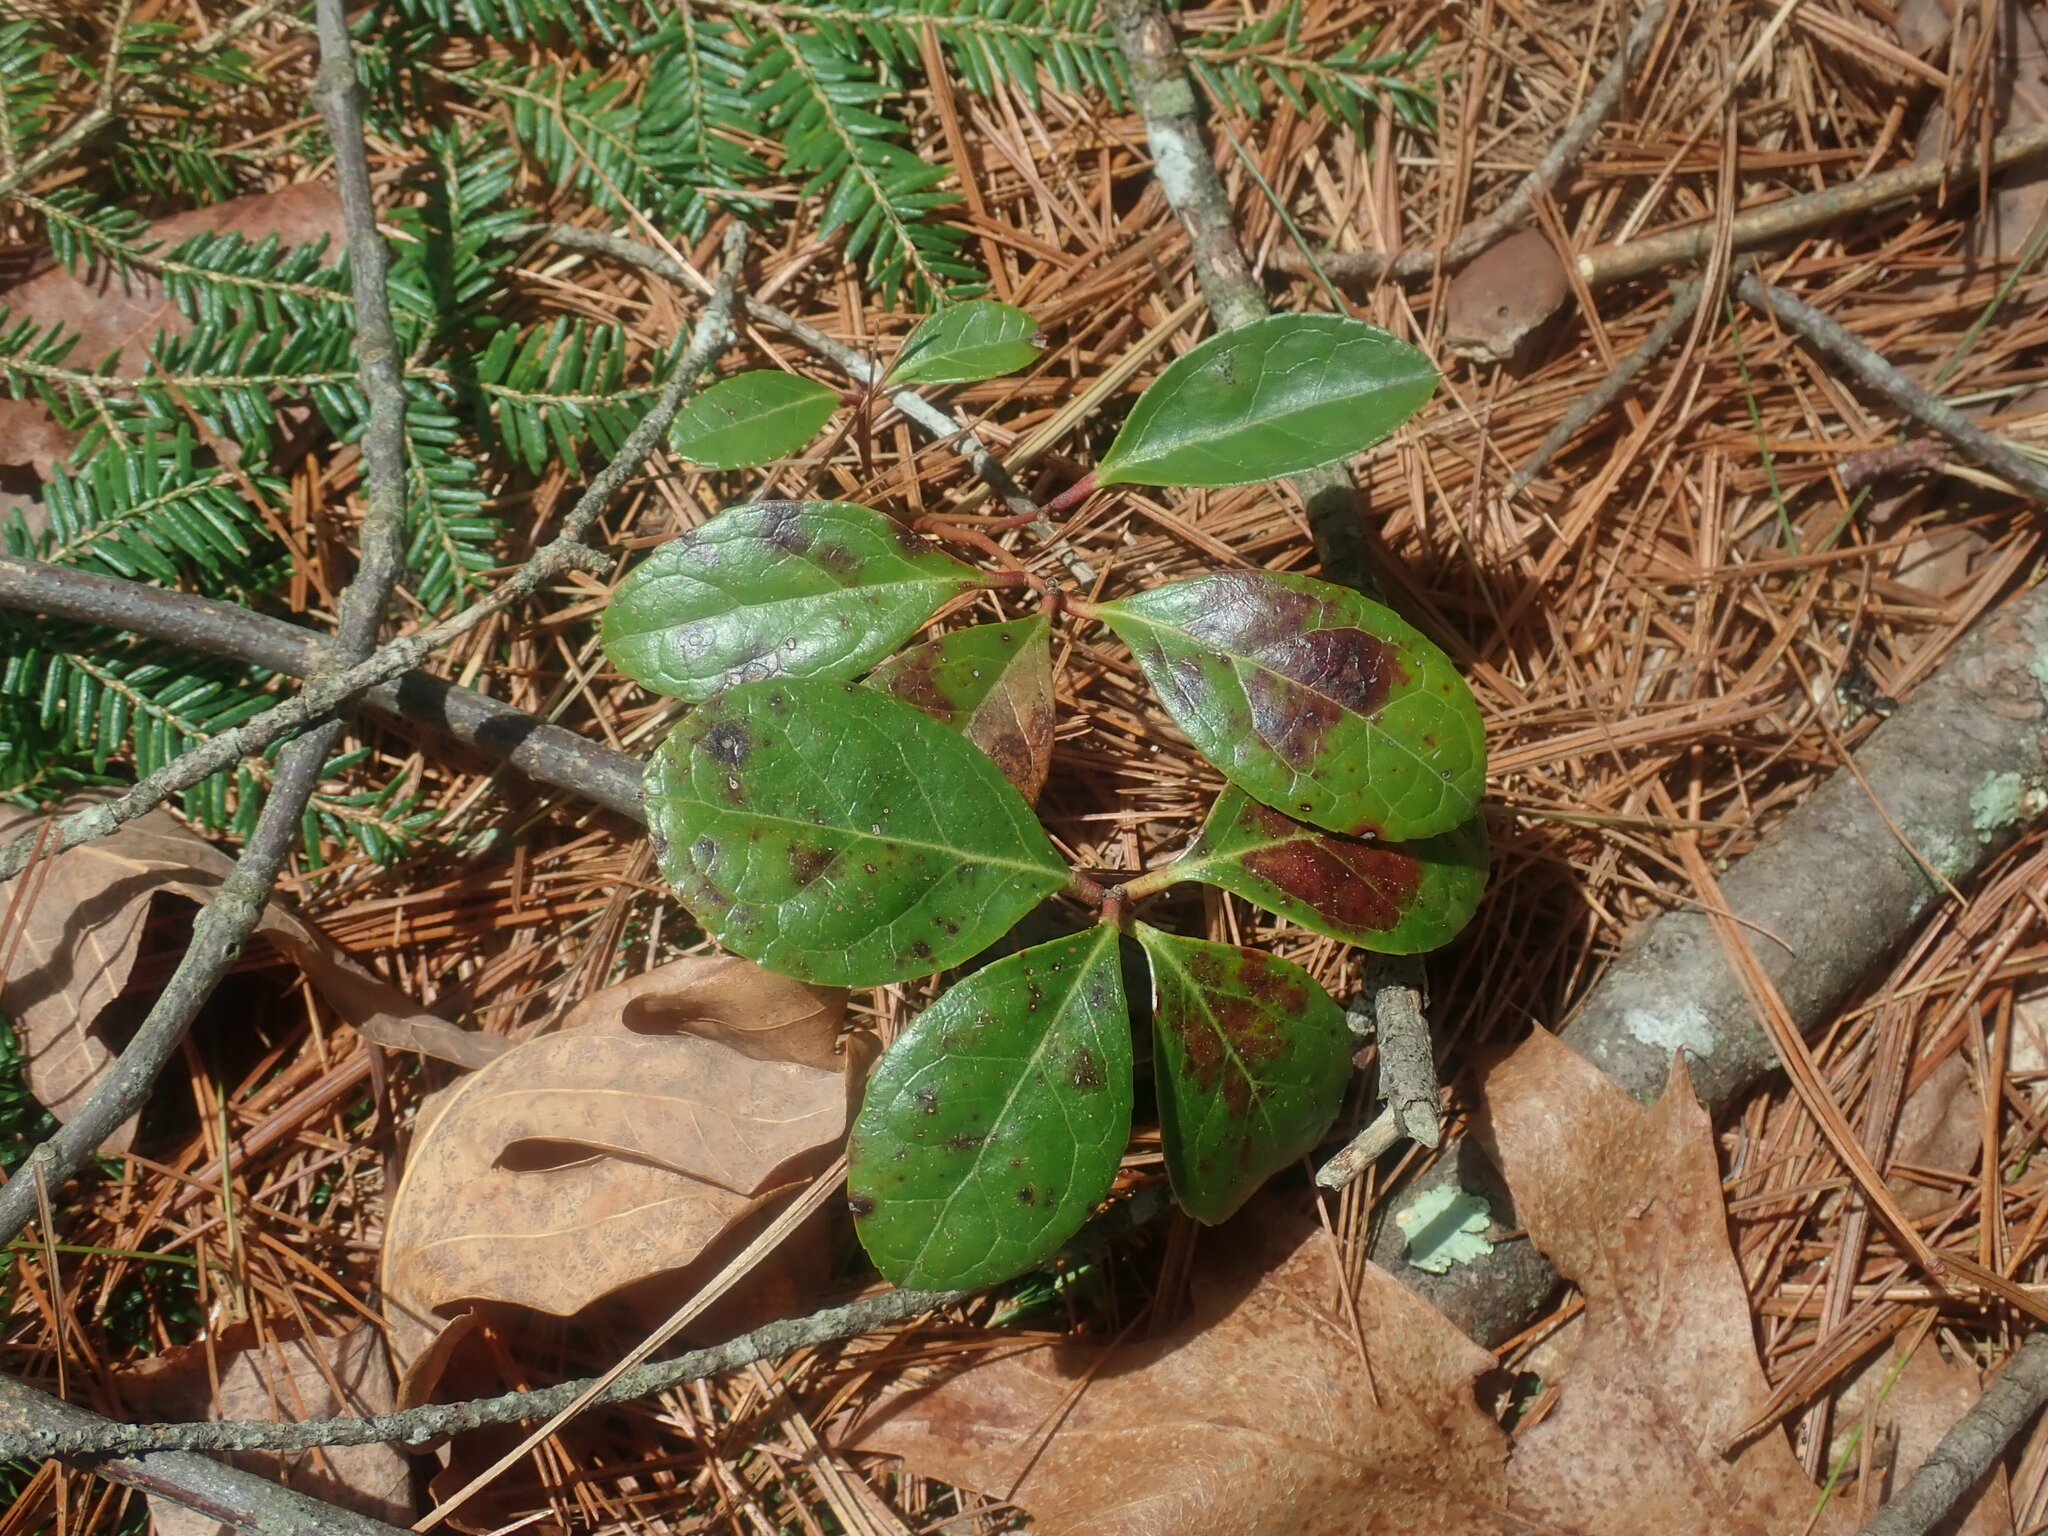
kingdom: Plantae
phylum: Tracheophyta
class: Magnoliopsida
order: Ericales
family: Ericaceae
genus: Gaultheria
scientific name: Gaultheria procumbens
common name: Checkerberry
